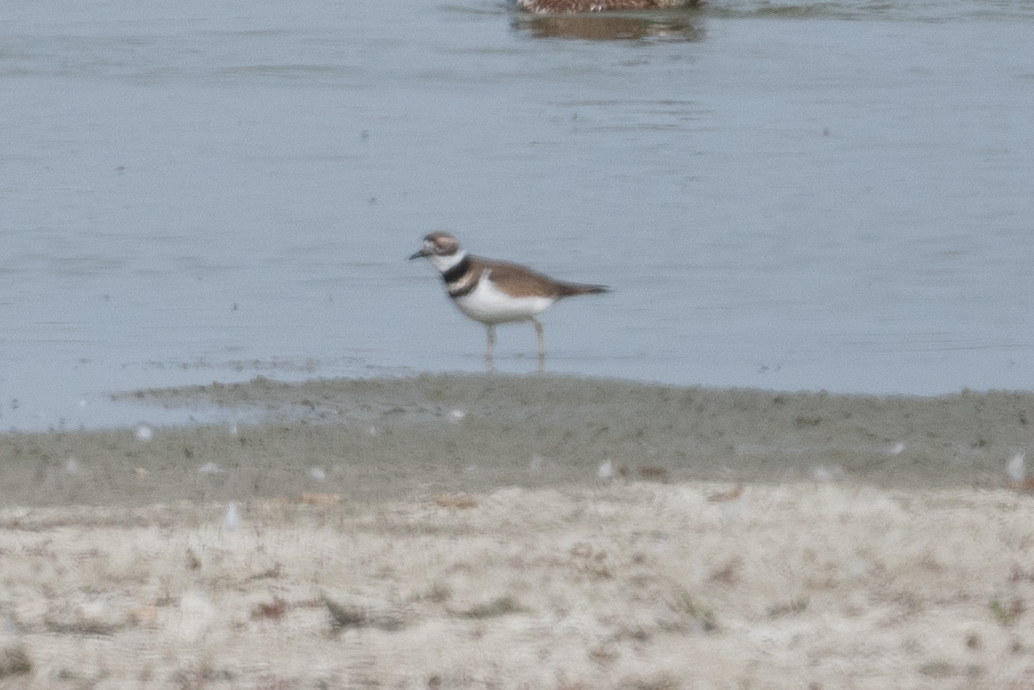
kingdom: Animalia
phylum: Chordata
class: Aves
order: Charadriiformes
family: Charadriidae
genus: Charadrius
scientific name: Charadrius vociferus
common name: Killdeer
